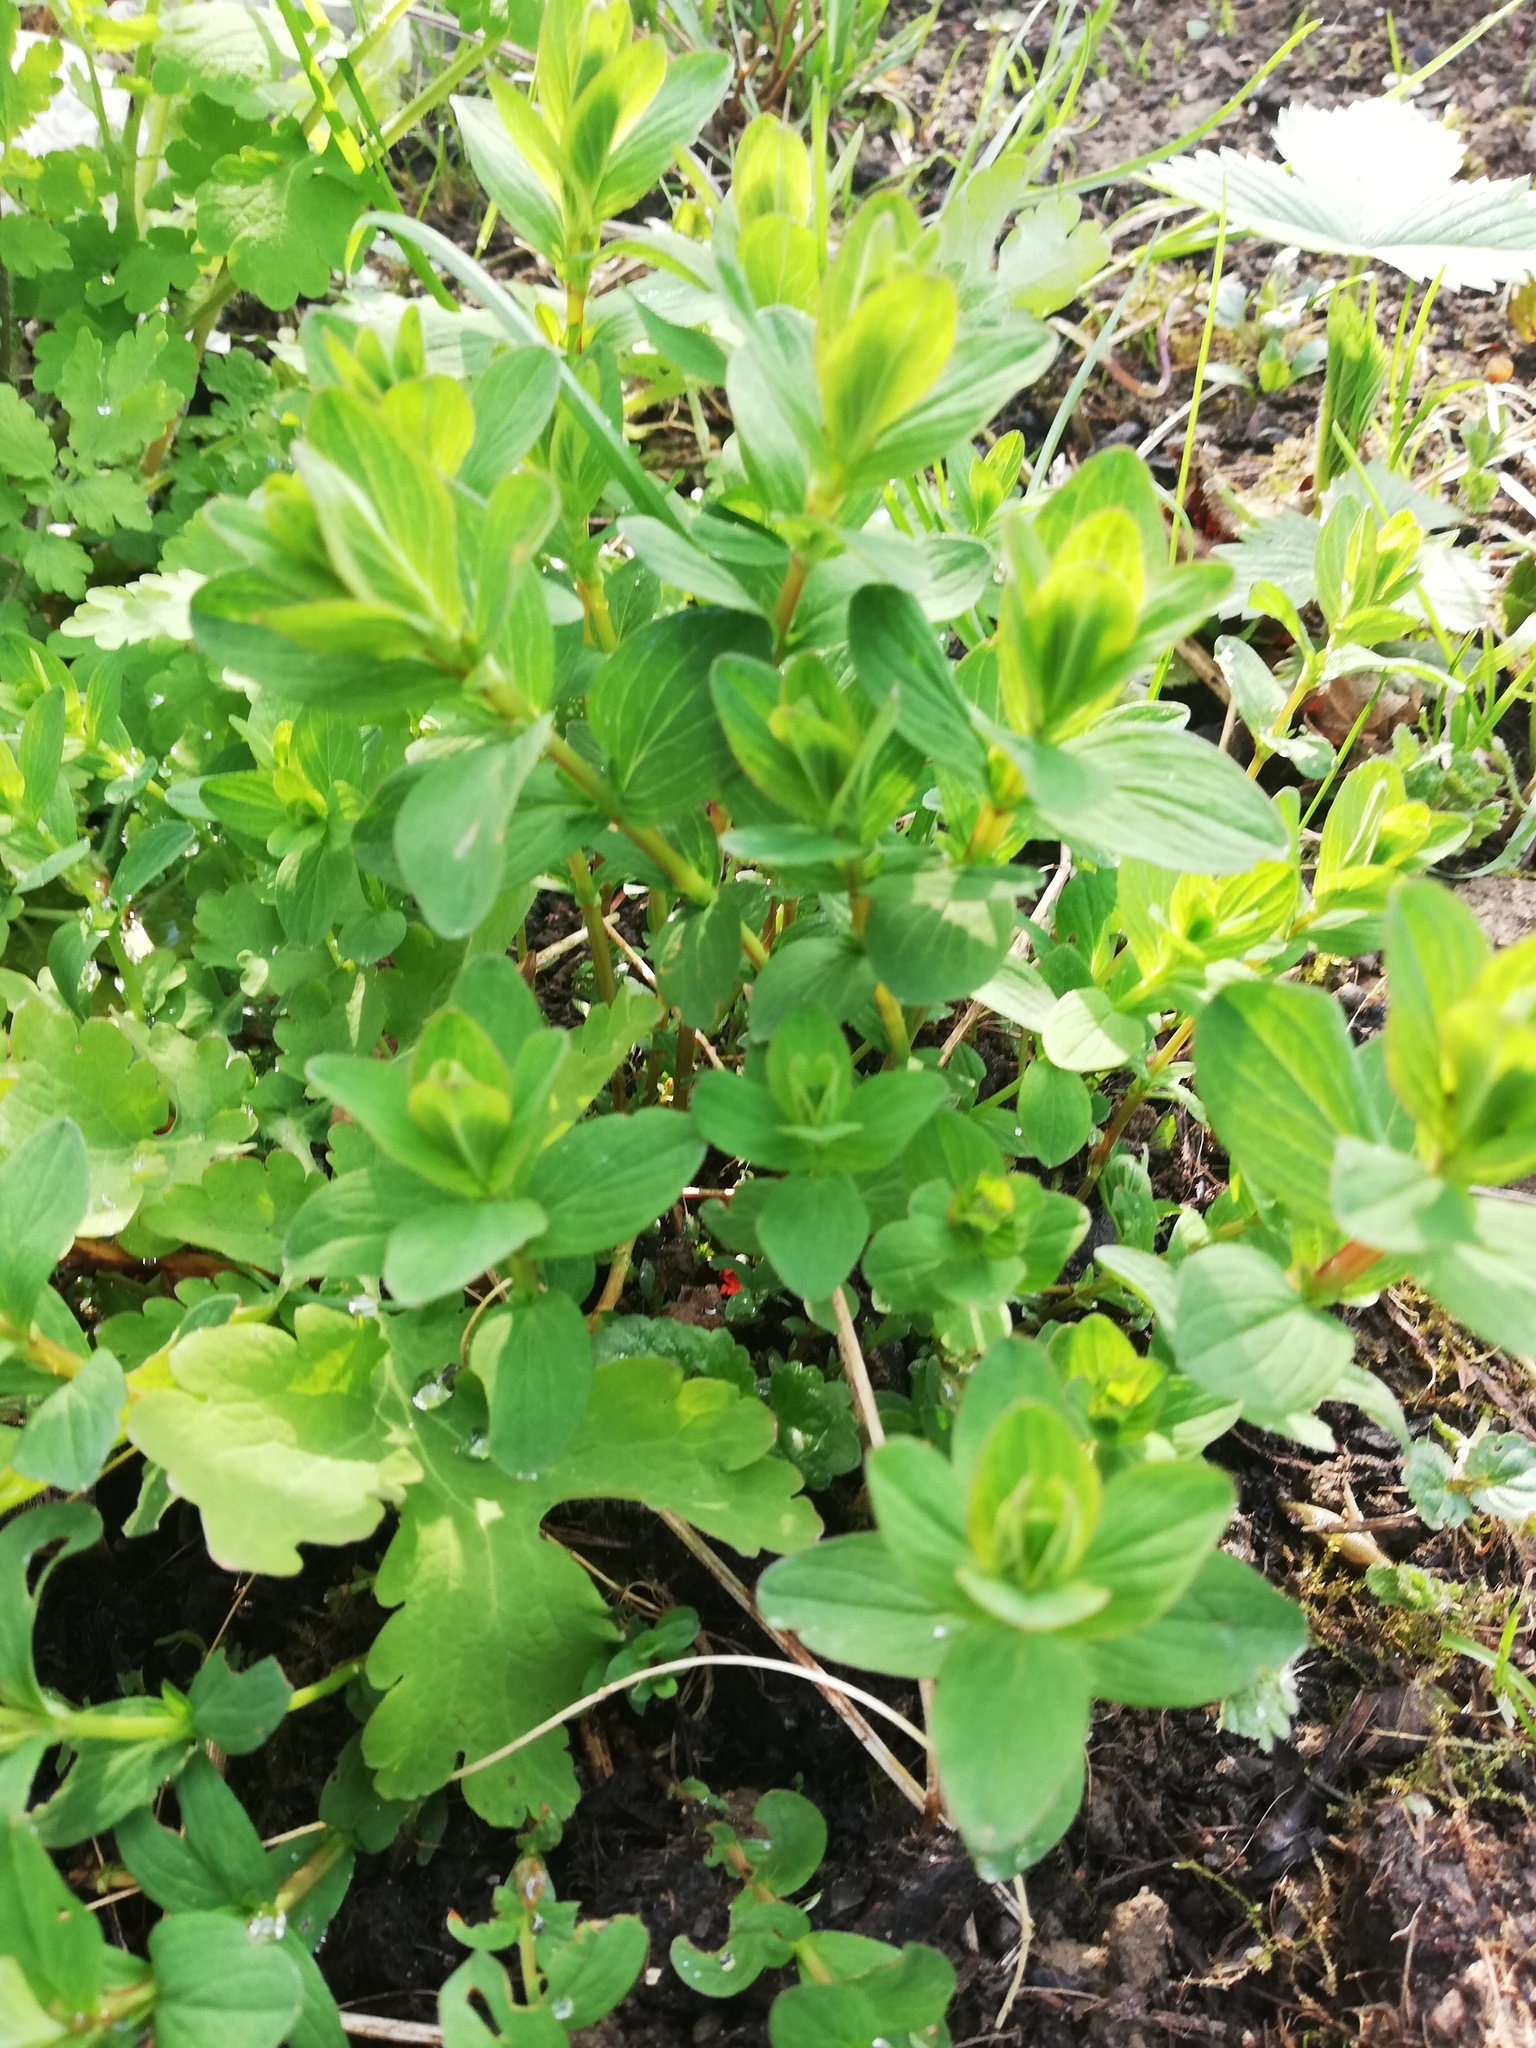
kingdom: Plantae
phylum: Tracheophyta
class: Magnoliopsida
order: Malpighiales
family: Hypericaceae
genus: Hypericum
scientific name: Hypericum
